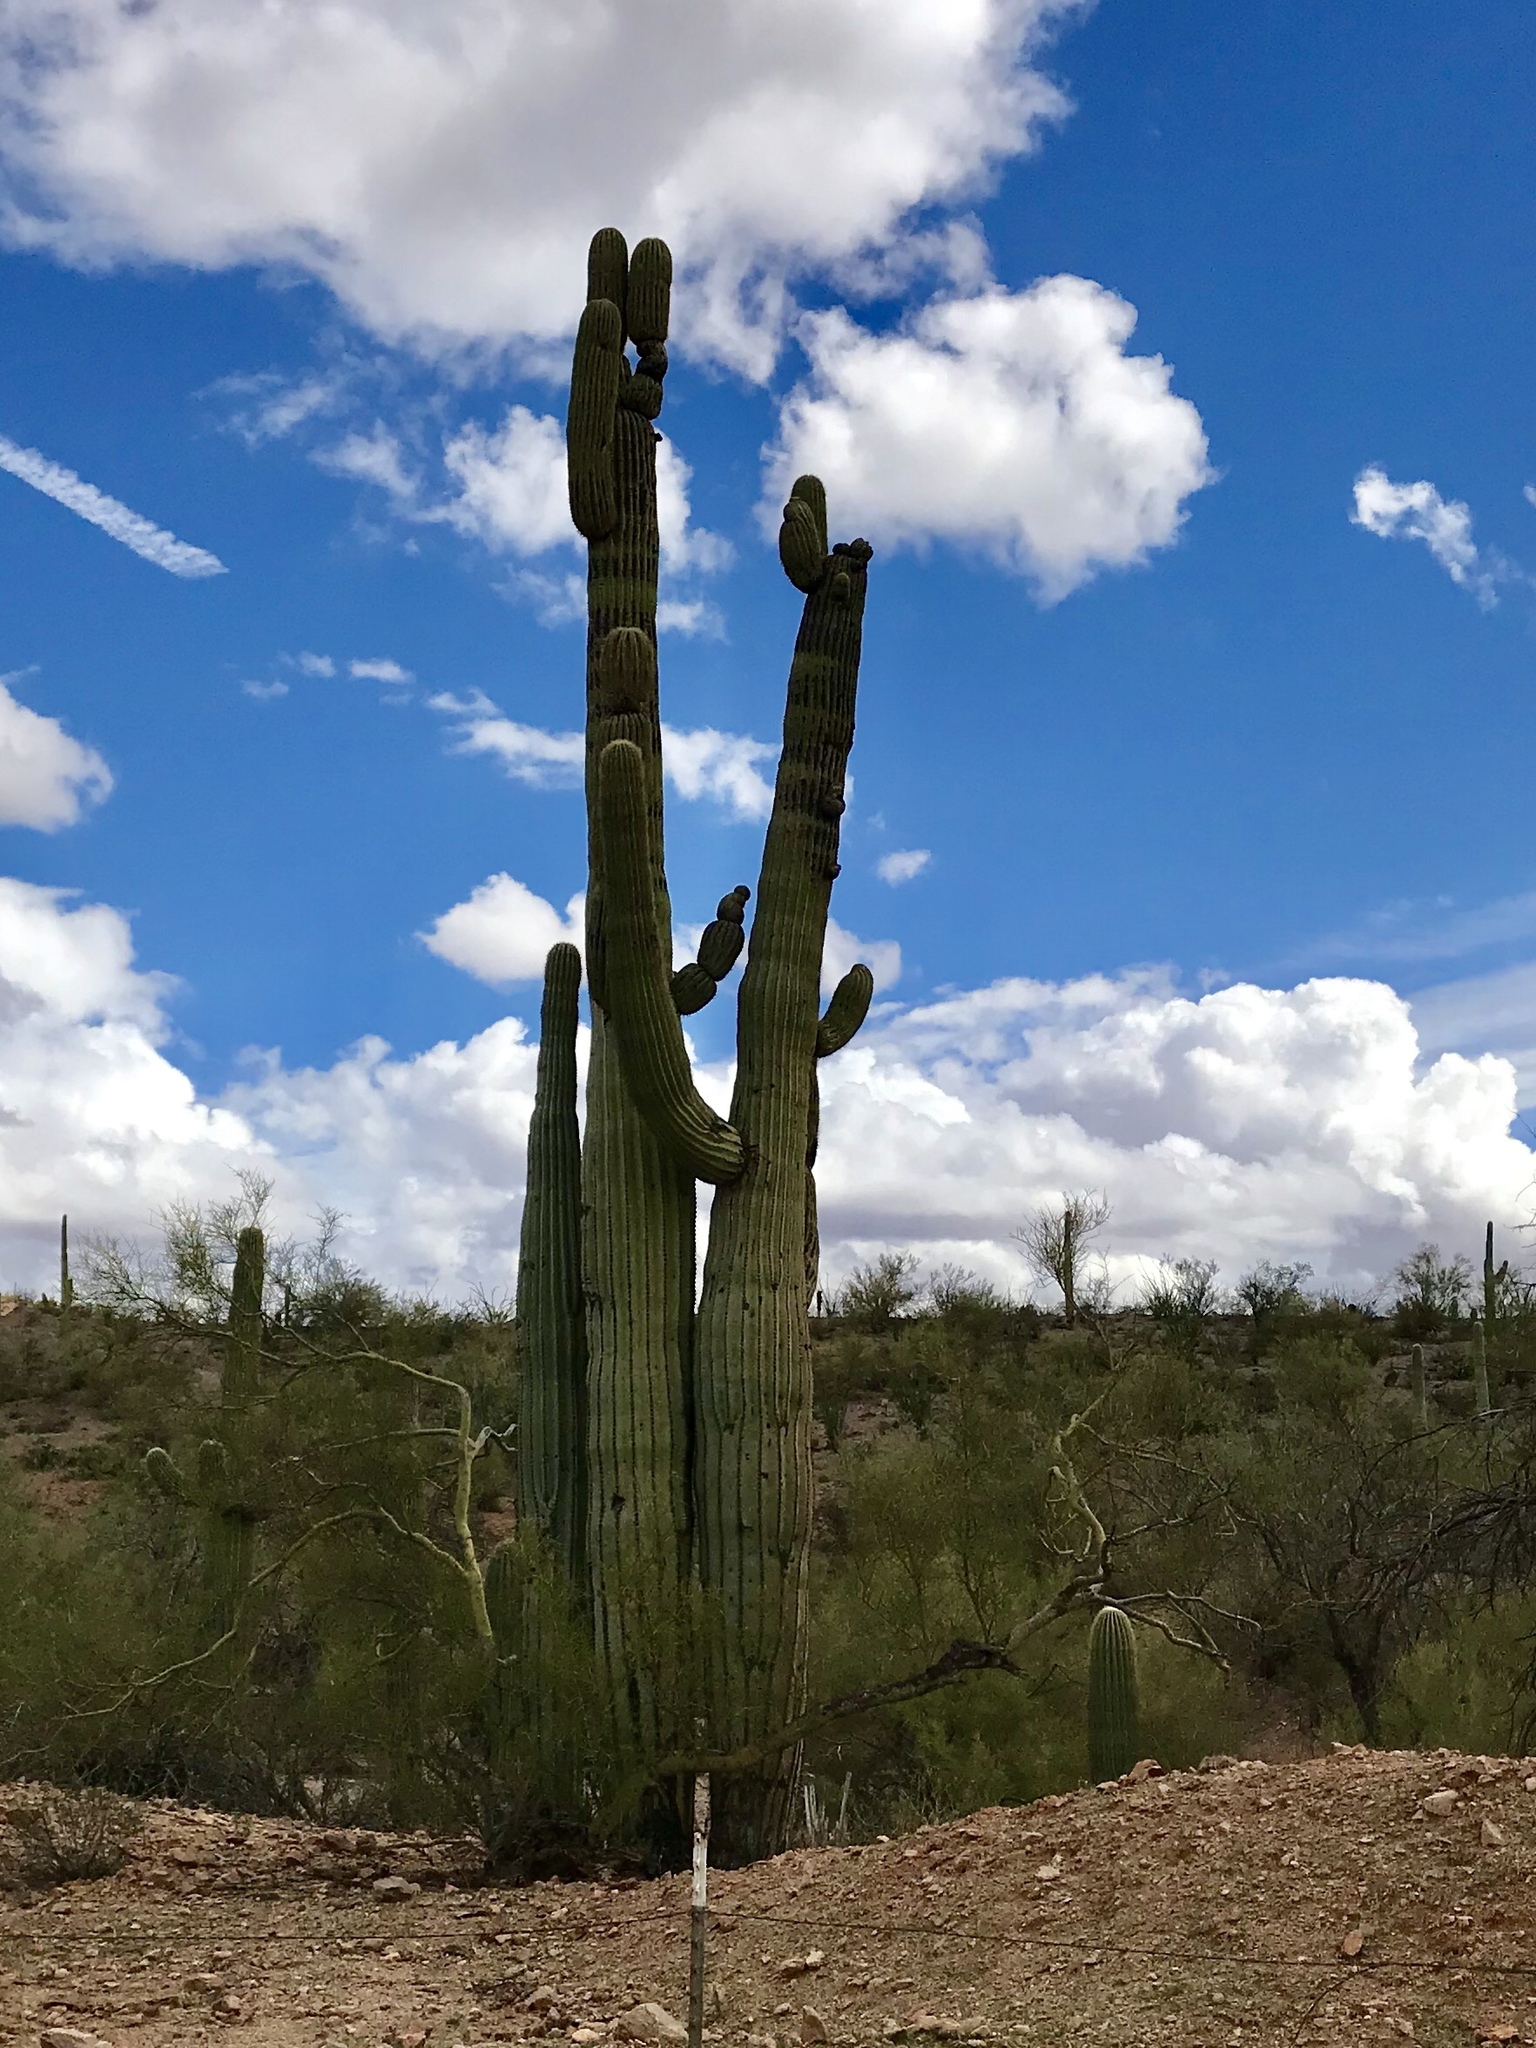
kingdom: Plantae
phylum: Tracheophyta
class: Magnoliopsida
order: Caryophyllales
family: Cactaceae
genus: Carnegiea
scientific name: Carnegiea gigantea
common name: Saguaro
